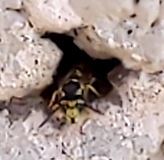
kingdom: Animalia
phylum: Arthropoda
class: Insecta
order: Hymenoptera
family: Vespidae
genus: Vespula
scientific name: Vespula germanica
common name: German wasp
